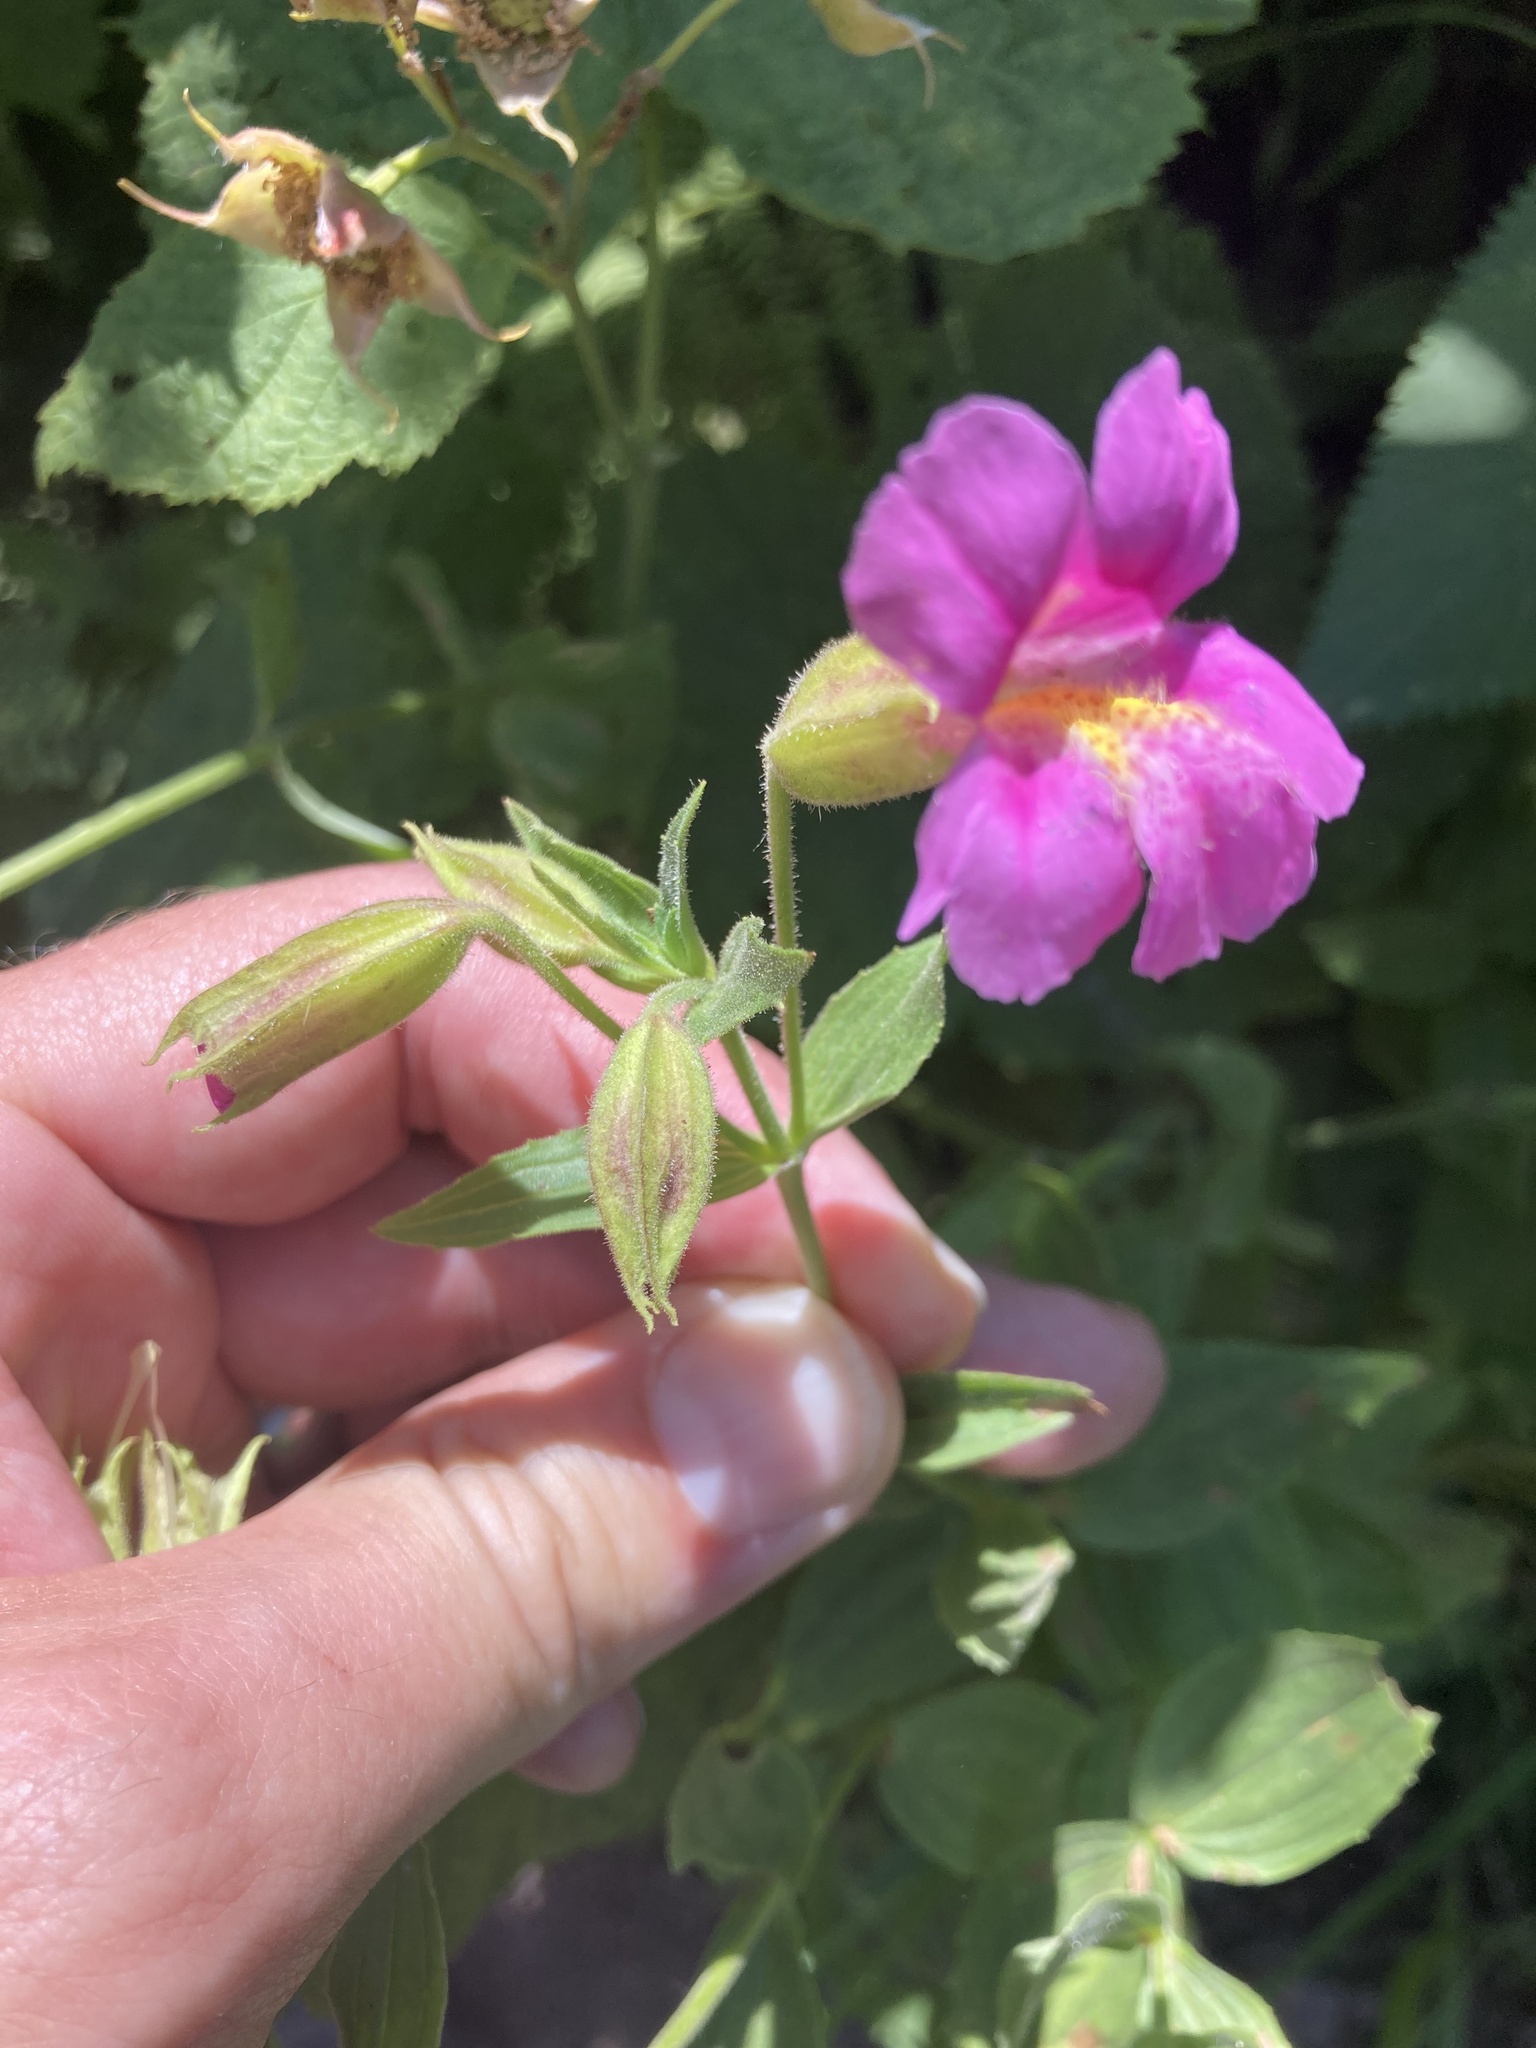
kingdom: Plantae
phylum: Tracheophyta
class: Magnoliopsida
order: Lamiales
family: Phrymaceae
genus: Erythranthe
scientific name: Erythranthe lewisii
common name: Lewis's monkey-flower
